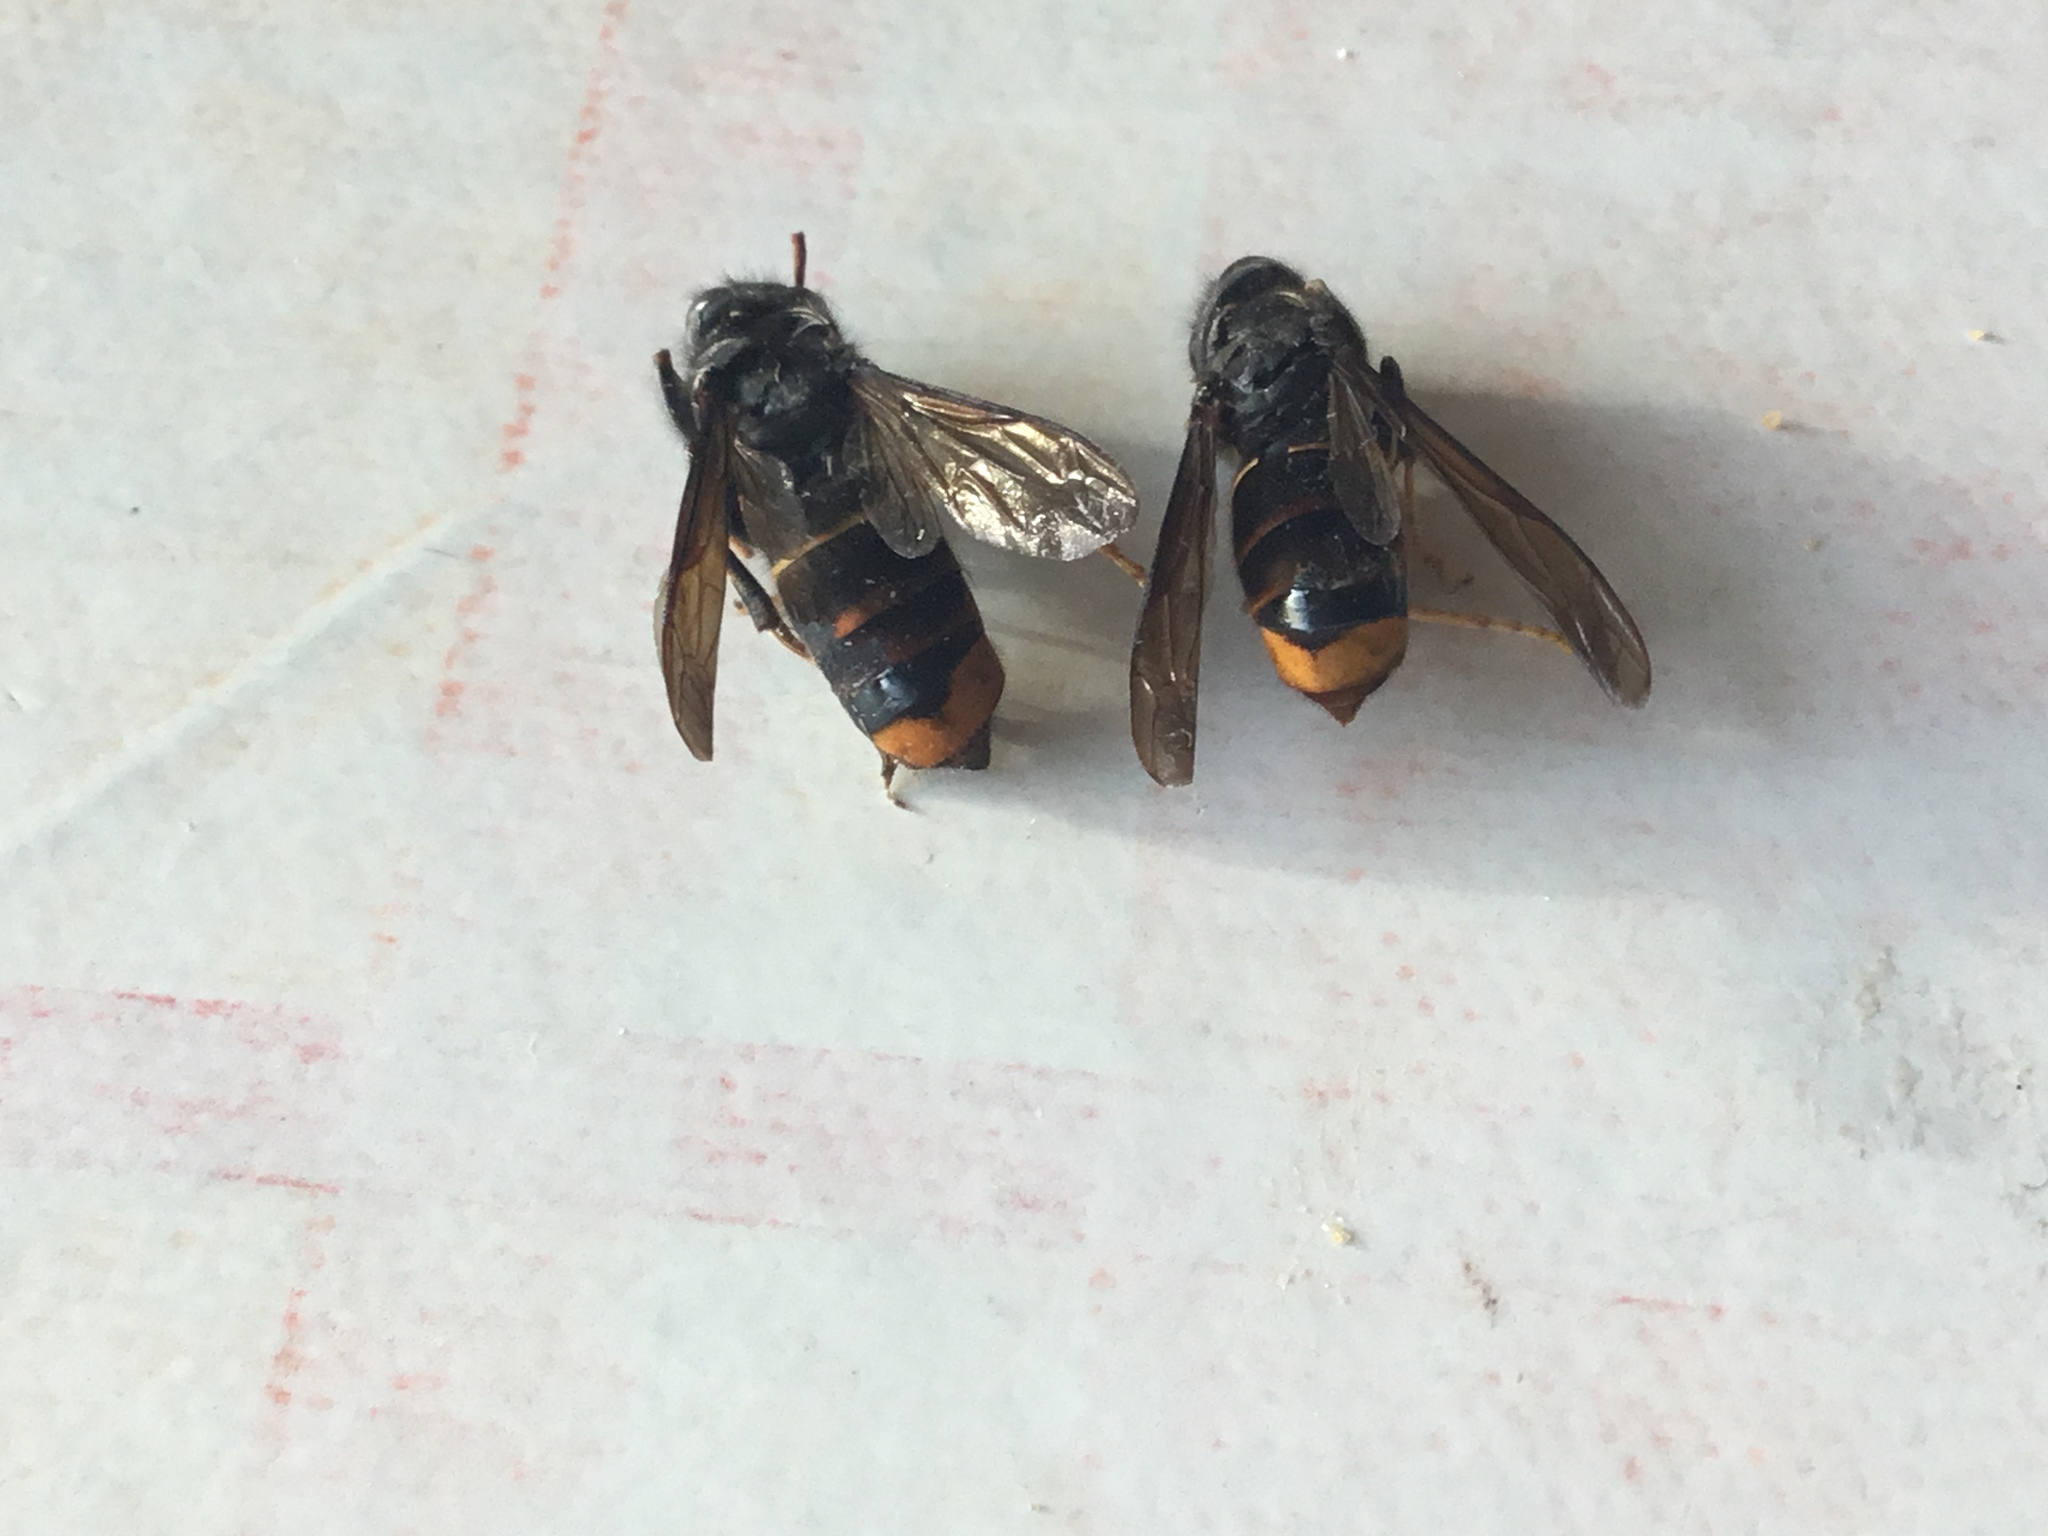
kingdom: Animalia
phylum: Arthropoda
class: Insecta
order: Hymenoptera
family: Vespidae
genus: Vespa
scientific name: Vespa velutina
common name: Asian hornet
